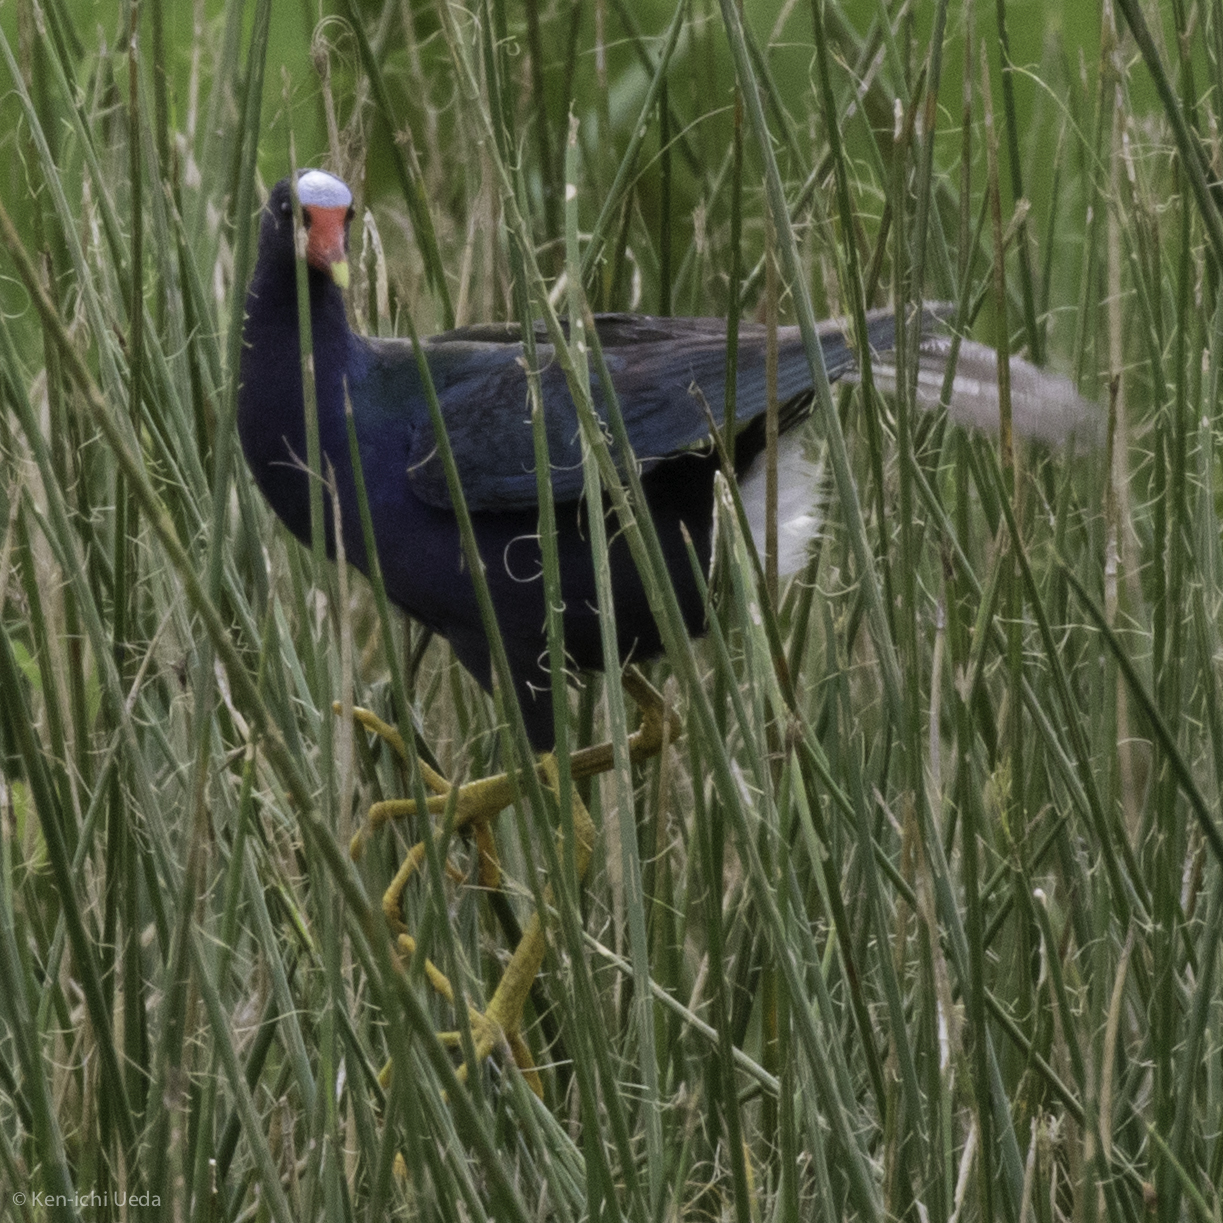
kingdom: Animalia
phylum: Chordata
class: Aves
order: Gruiformes
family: Rallidae
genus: Porphyrio
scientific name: Porphyrio martinica
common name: Purple gallinule
